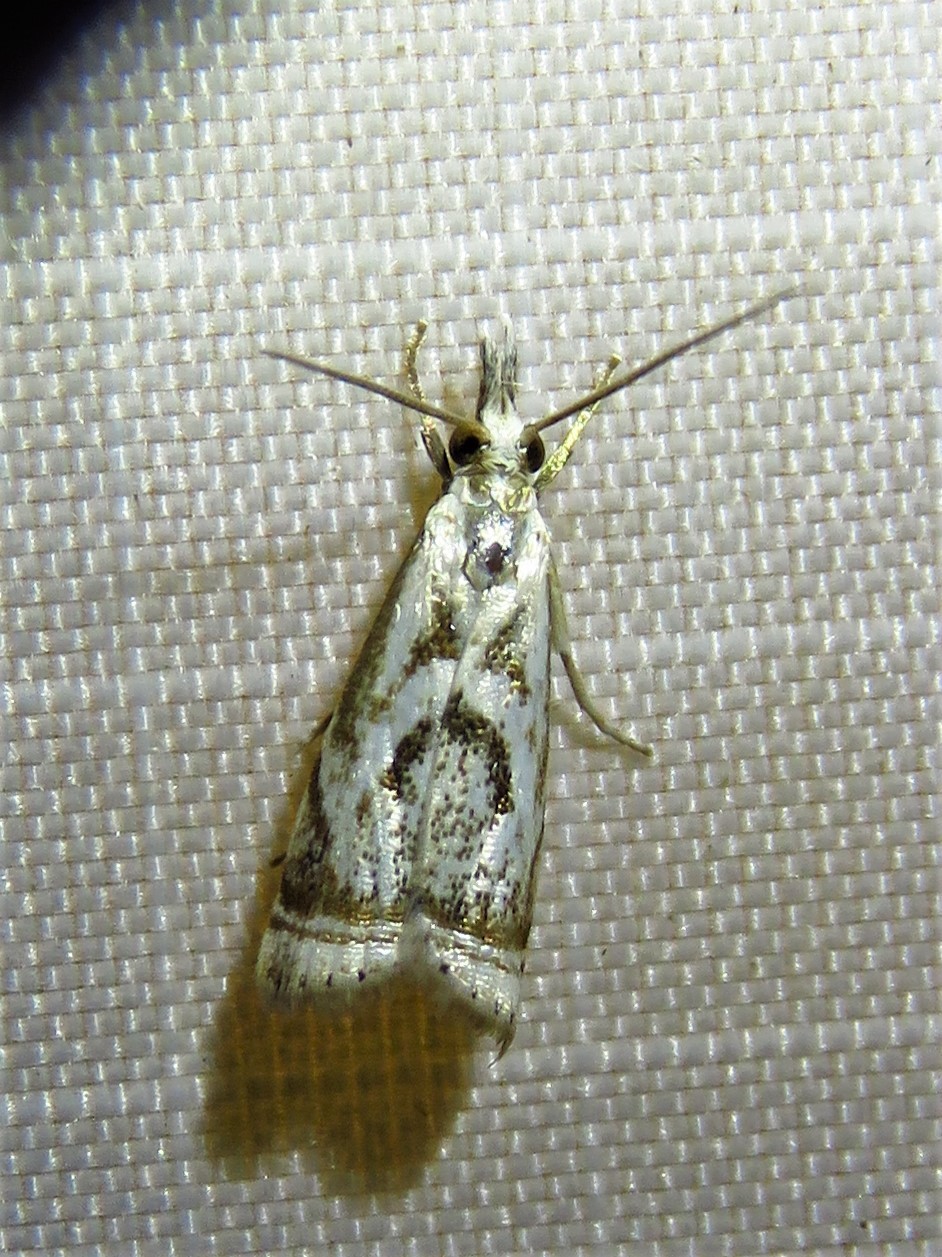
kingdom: Animalia
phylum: Arthropoda
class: Insecta
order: Lepidoptera
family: Crambidae
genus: Microcrambus
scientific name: Microcrambus elegans
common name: Elegant grass-veneer
